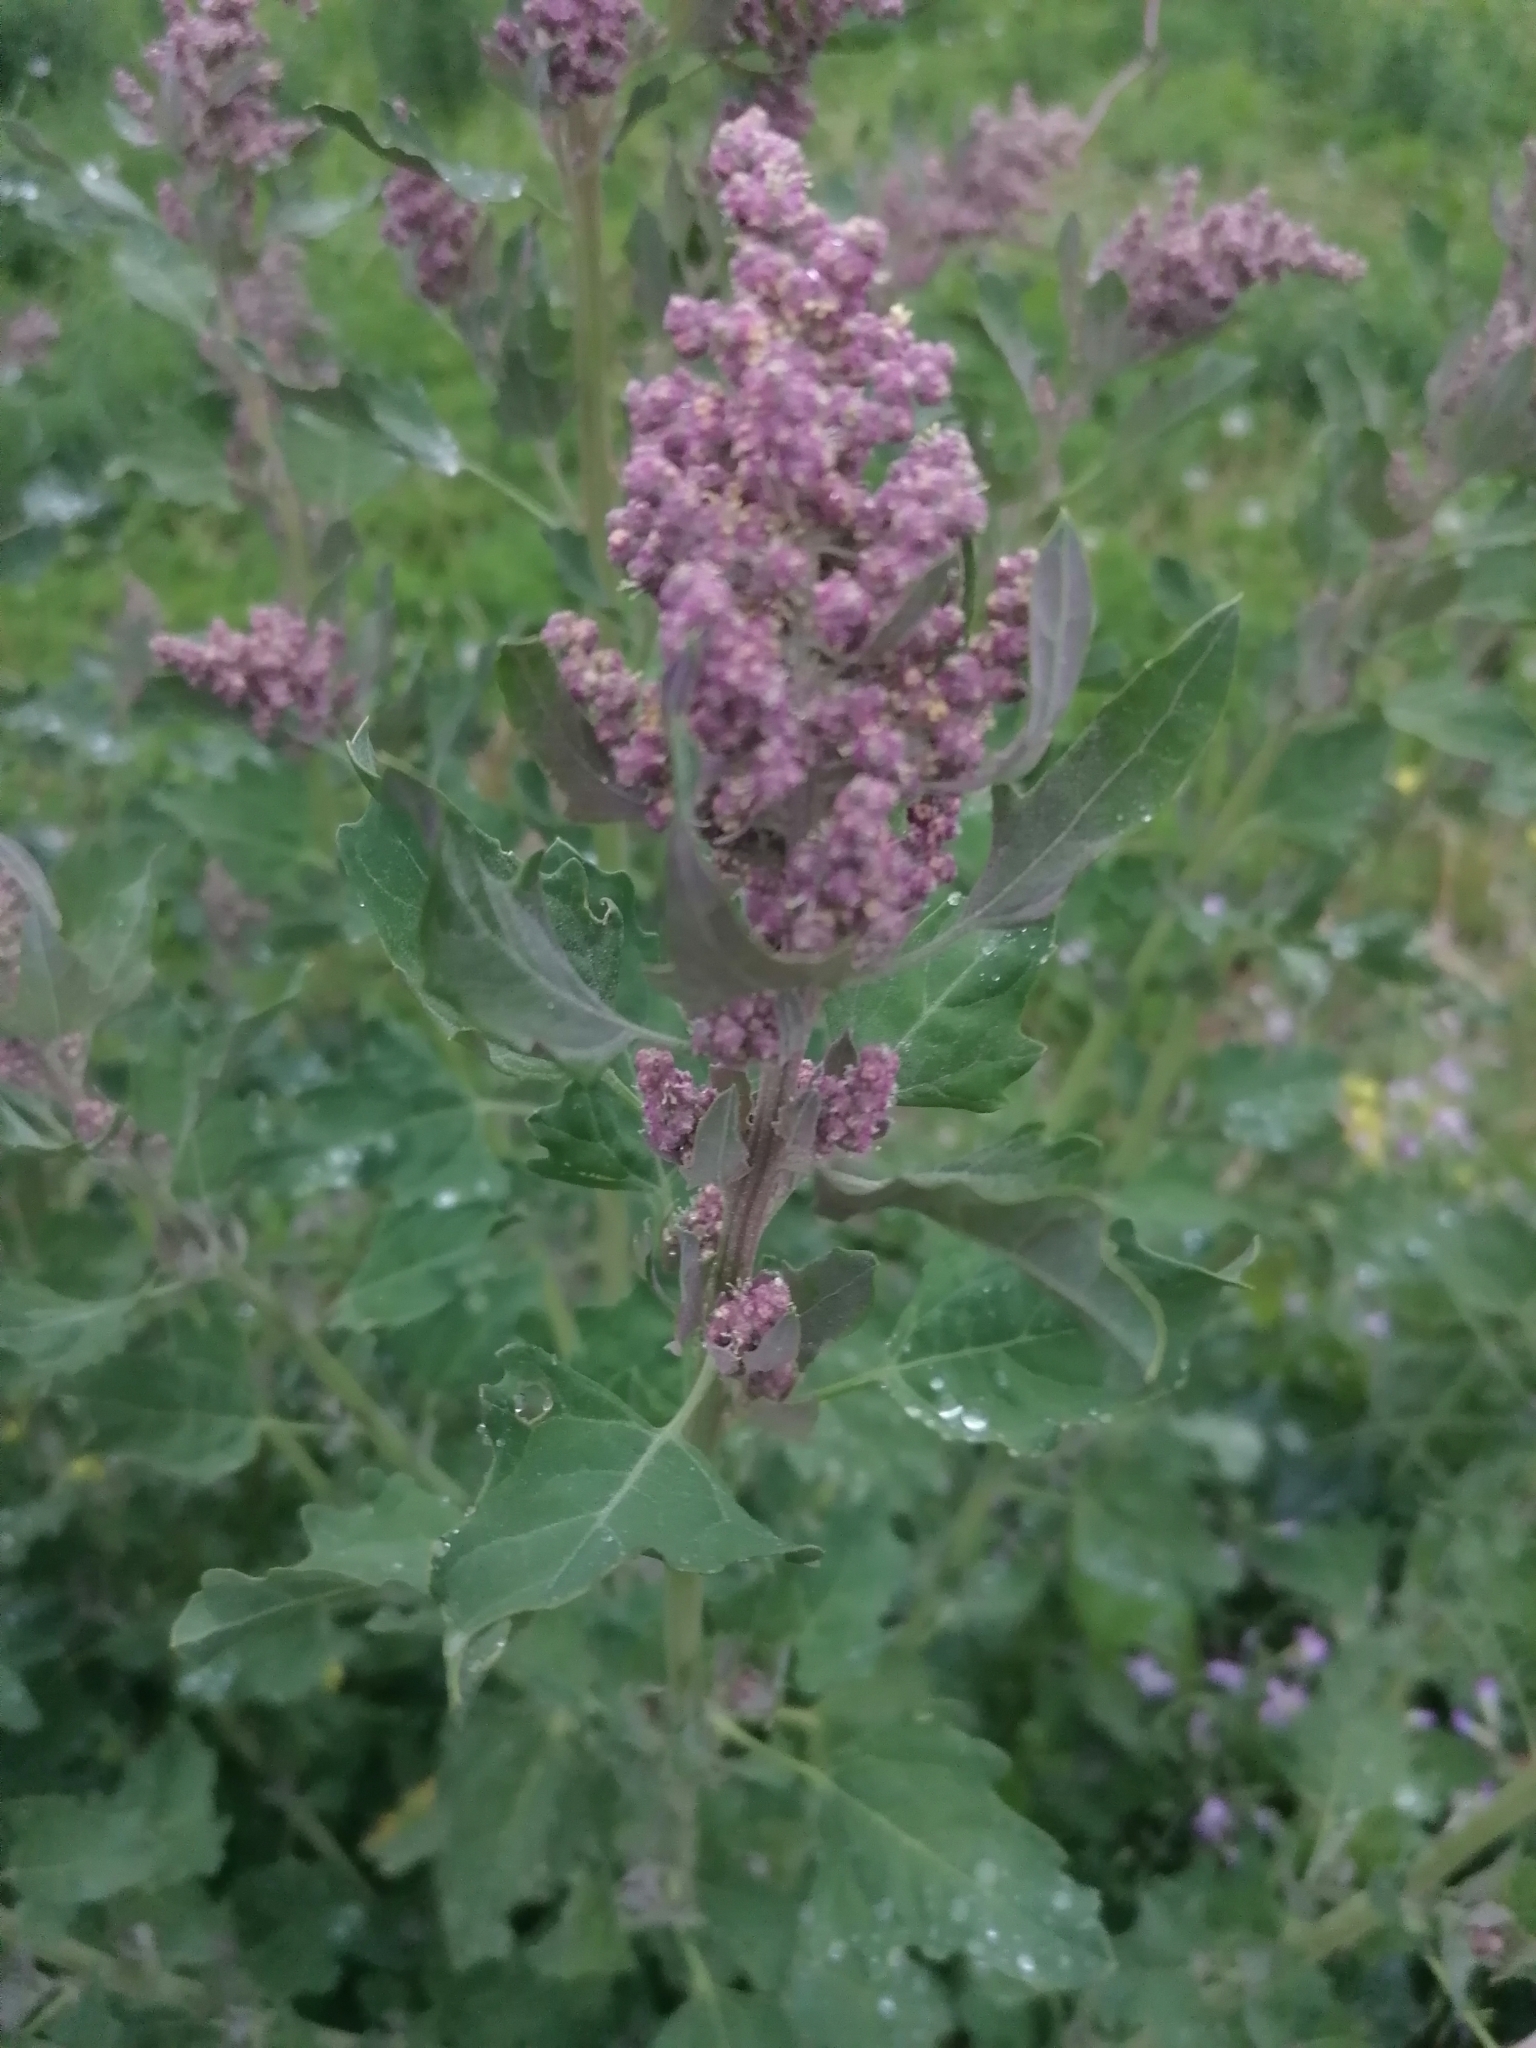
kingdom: Plantae
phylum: Tracheophyta
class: Magnoliopsida
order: Caryophyllales
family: Amaranthaceae
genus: Chenopodium
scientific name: Chenopodium giganteum
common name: Magentaspreen
